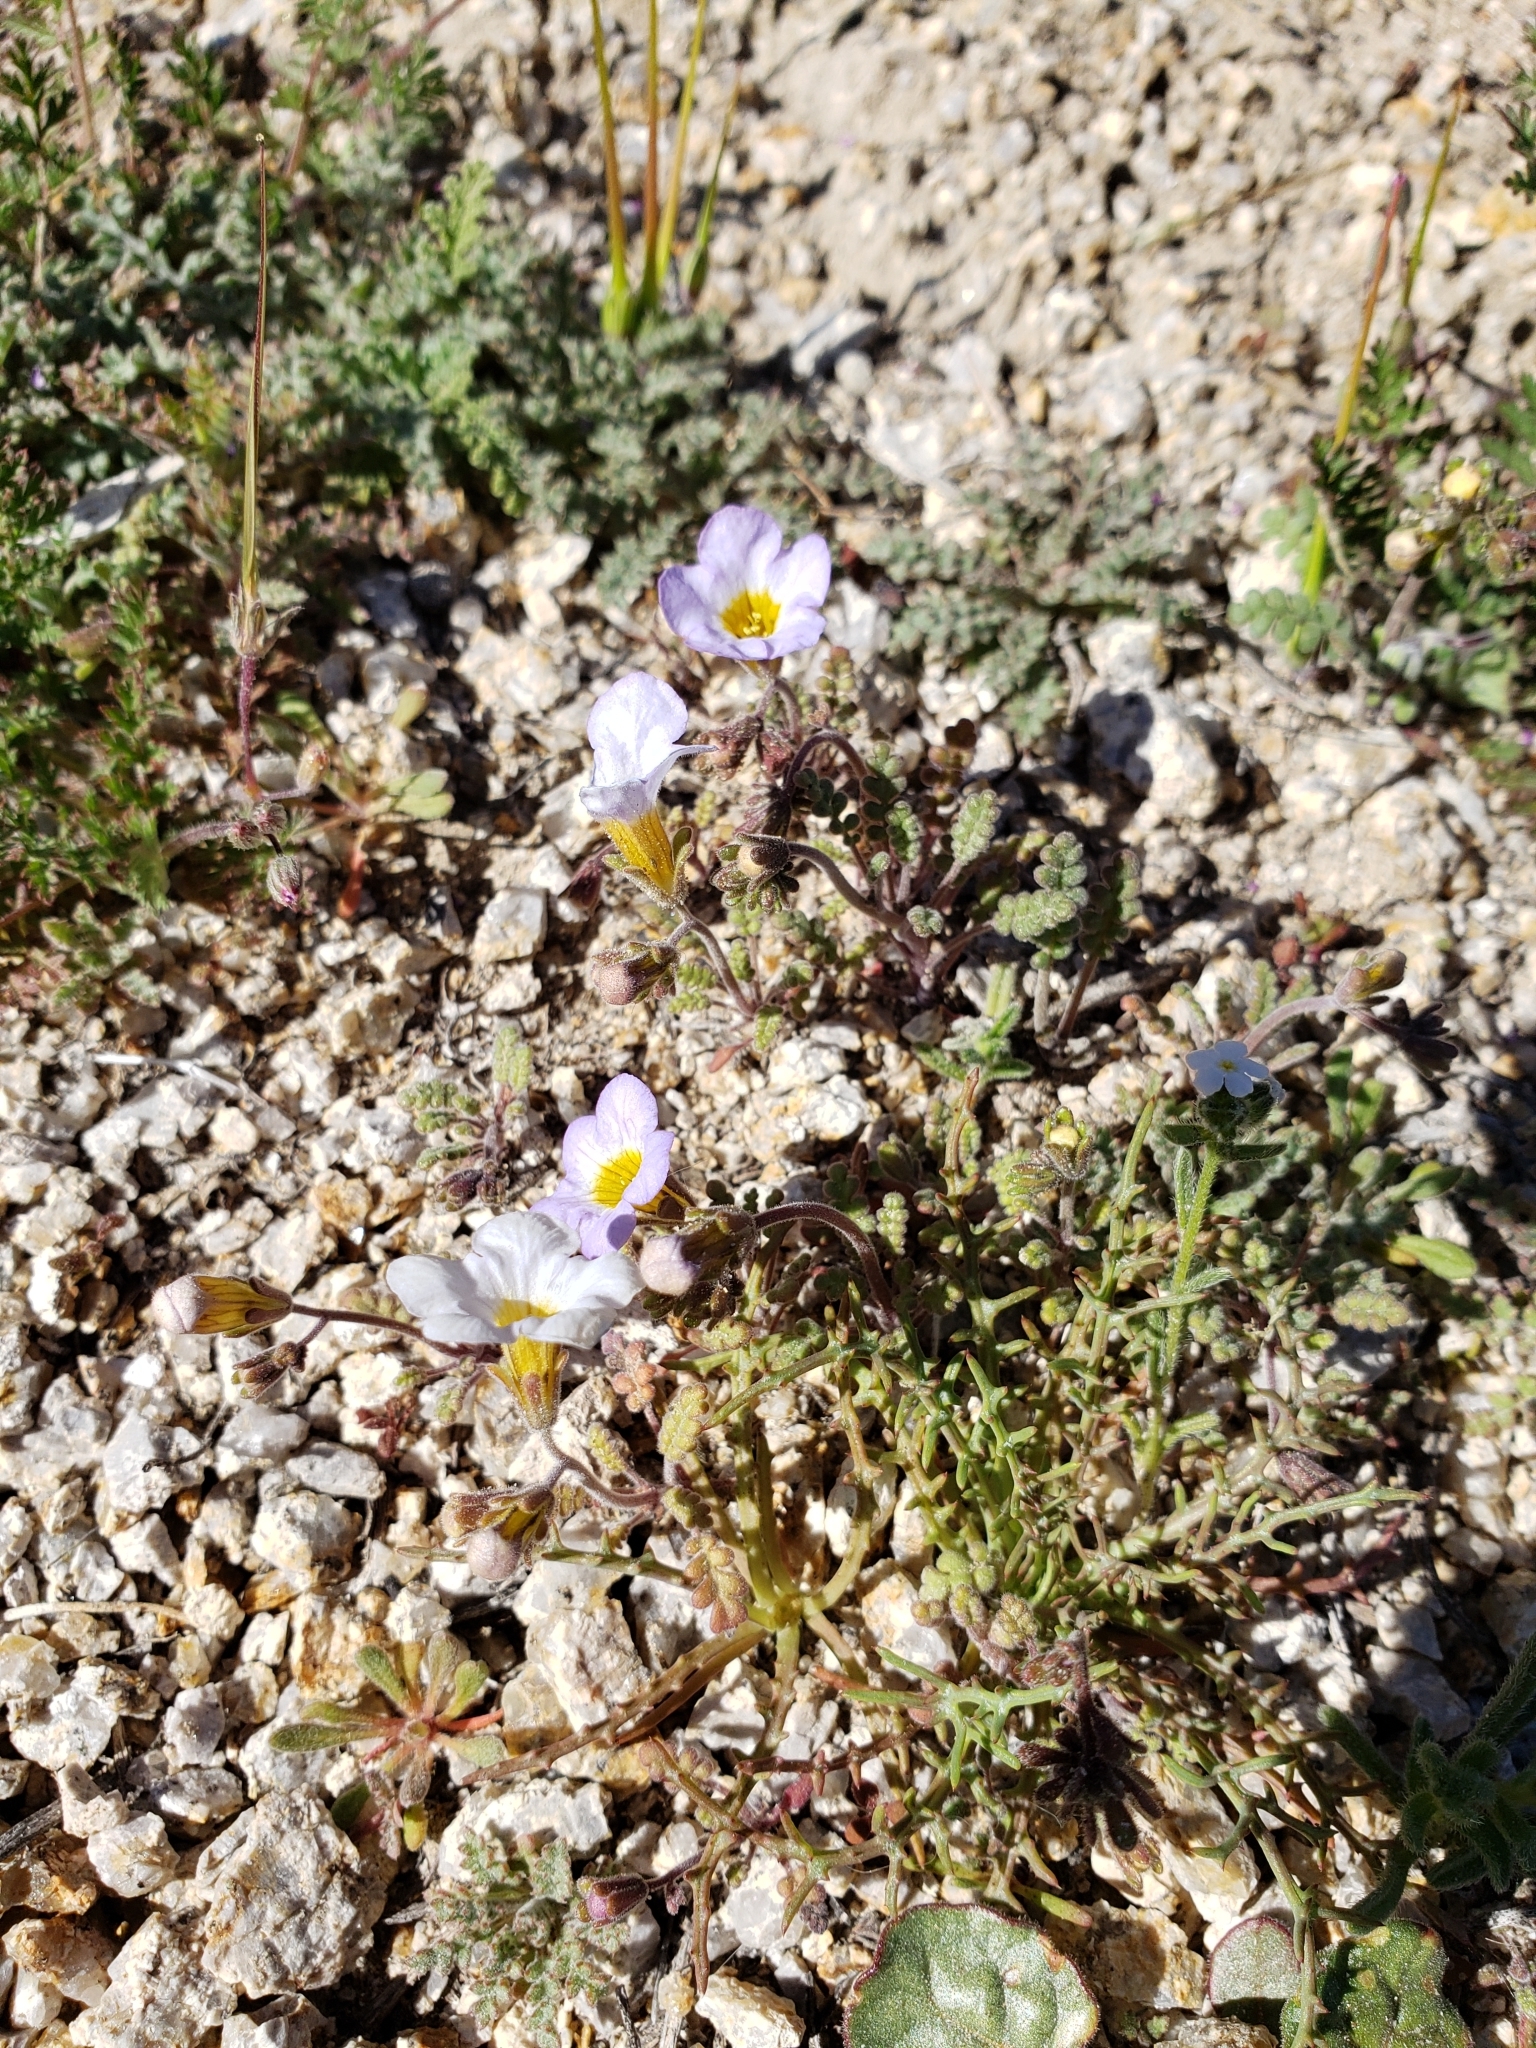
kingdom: Plantae
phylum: Tracheophyta
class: Magnoliopsida
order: Boraginales
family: Hydrophyllaceae
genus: Phacelia
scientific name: Phacelia fremontii
